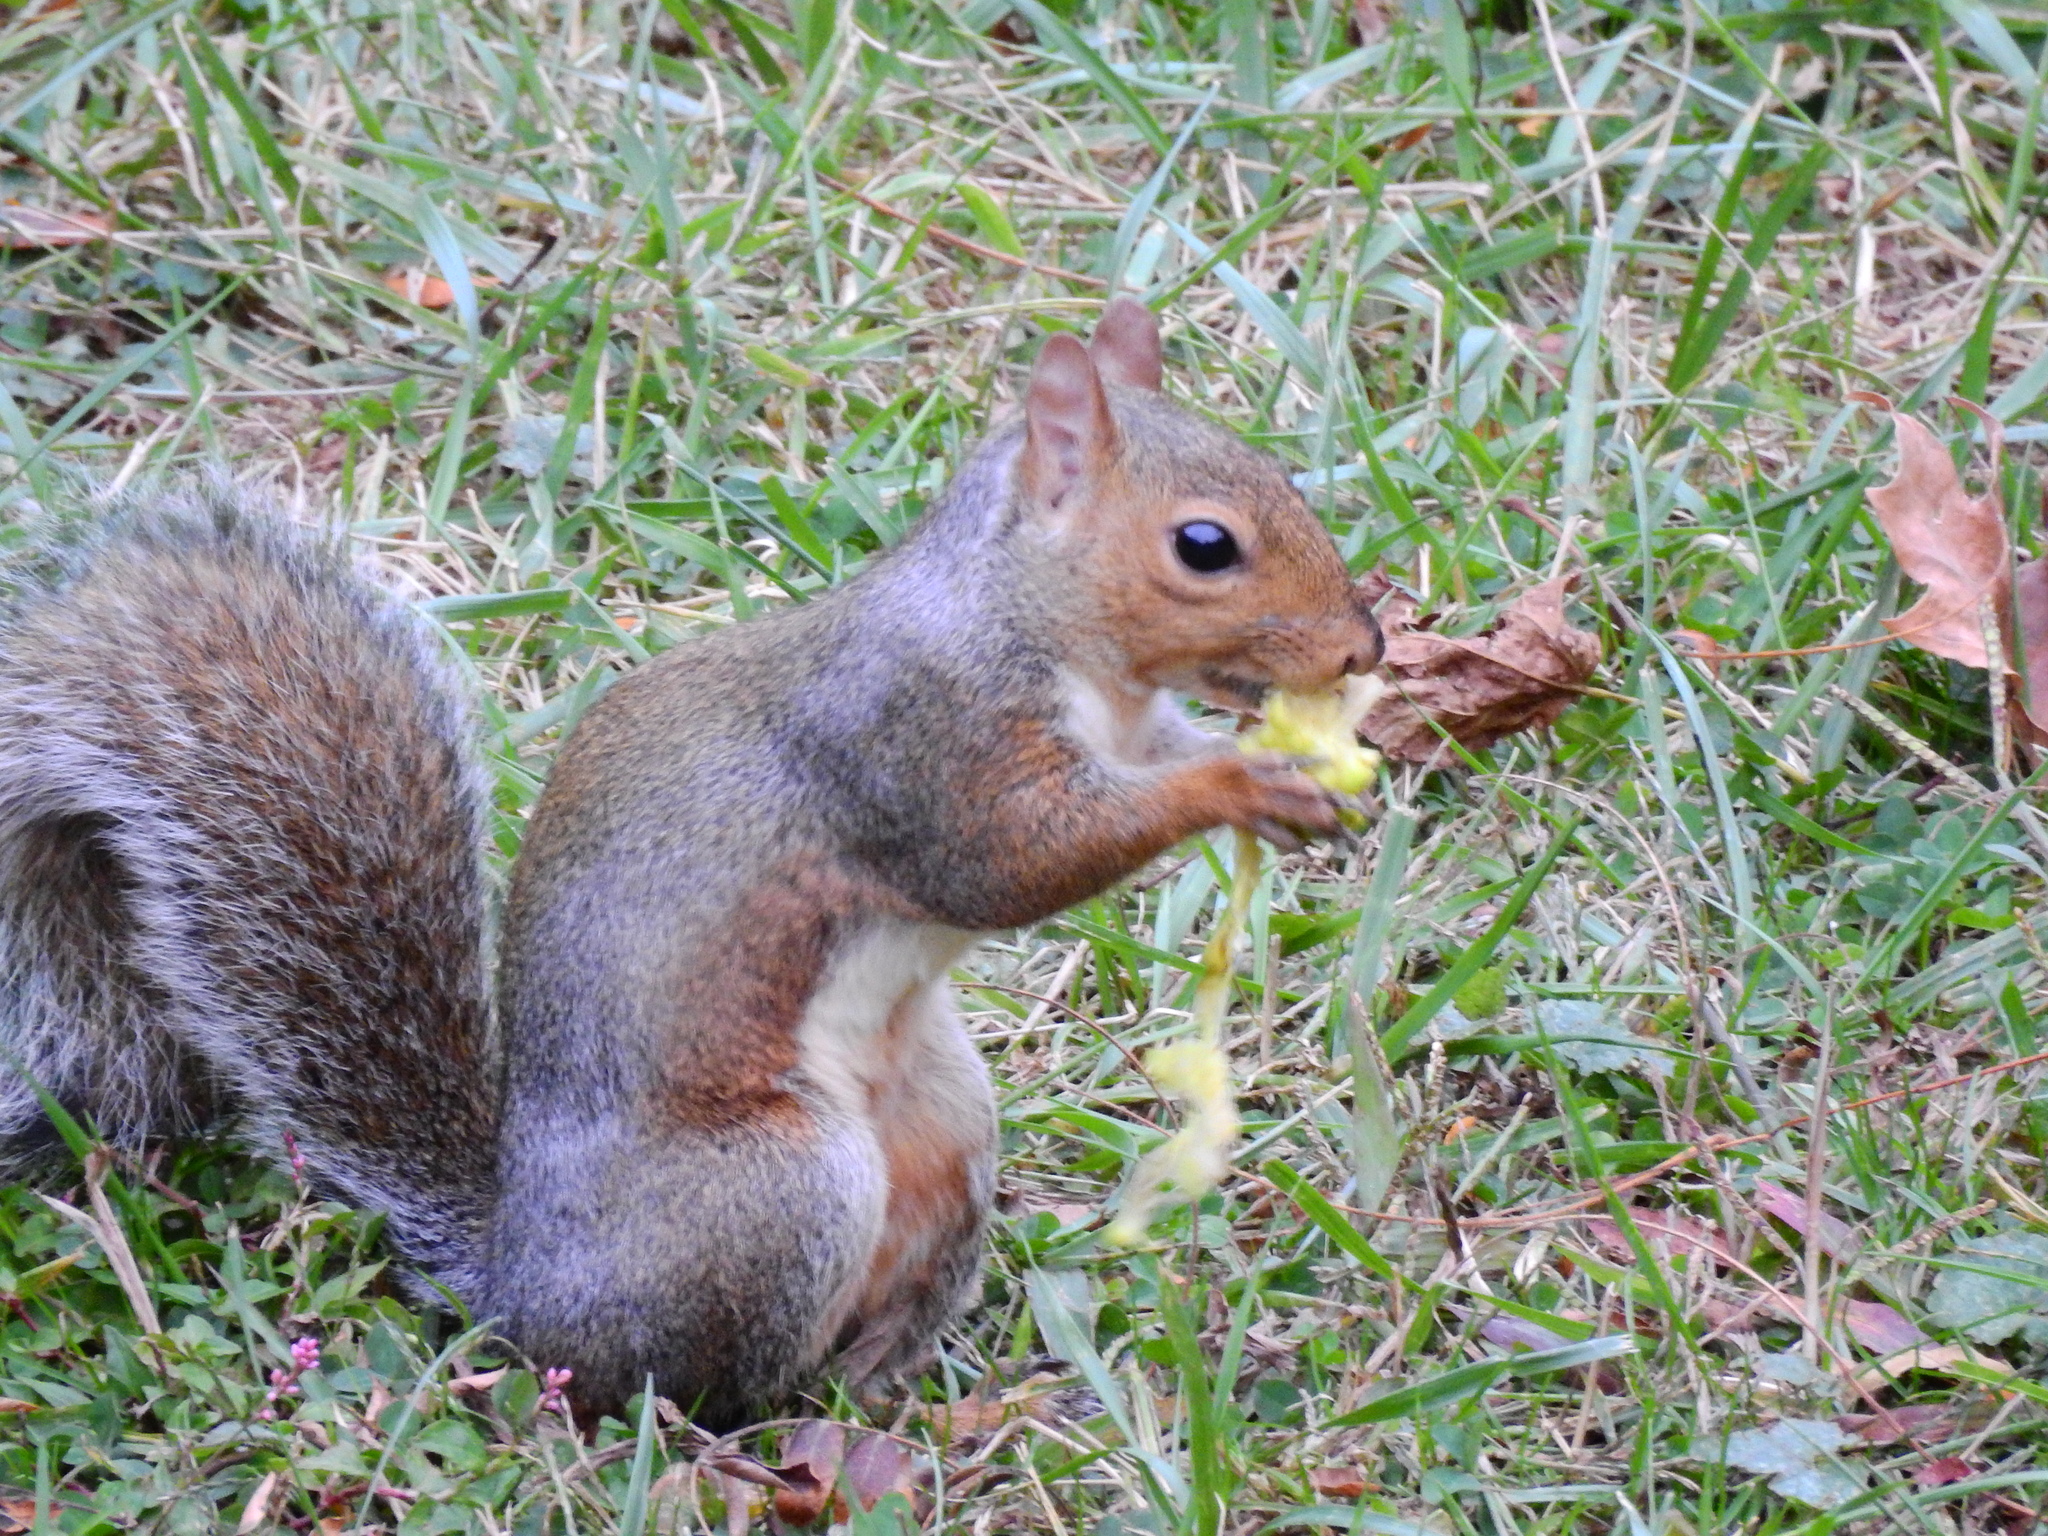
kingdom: Animalia
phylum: Chordata
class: Mammalia
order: Rodentia
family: Sciuridae
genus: Sciurus
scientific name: Sciurus carolinensis
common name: Eastern gray squirrel
